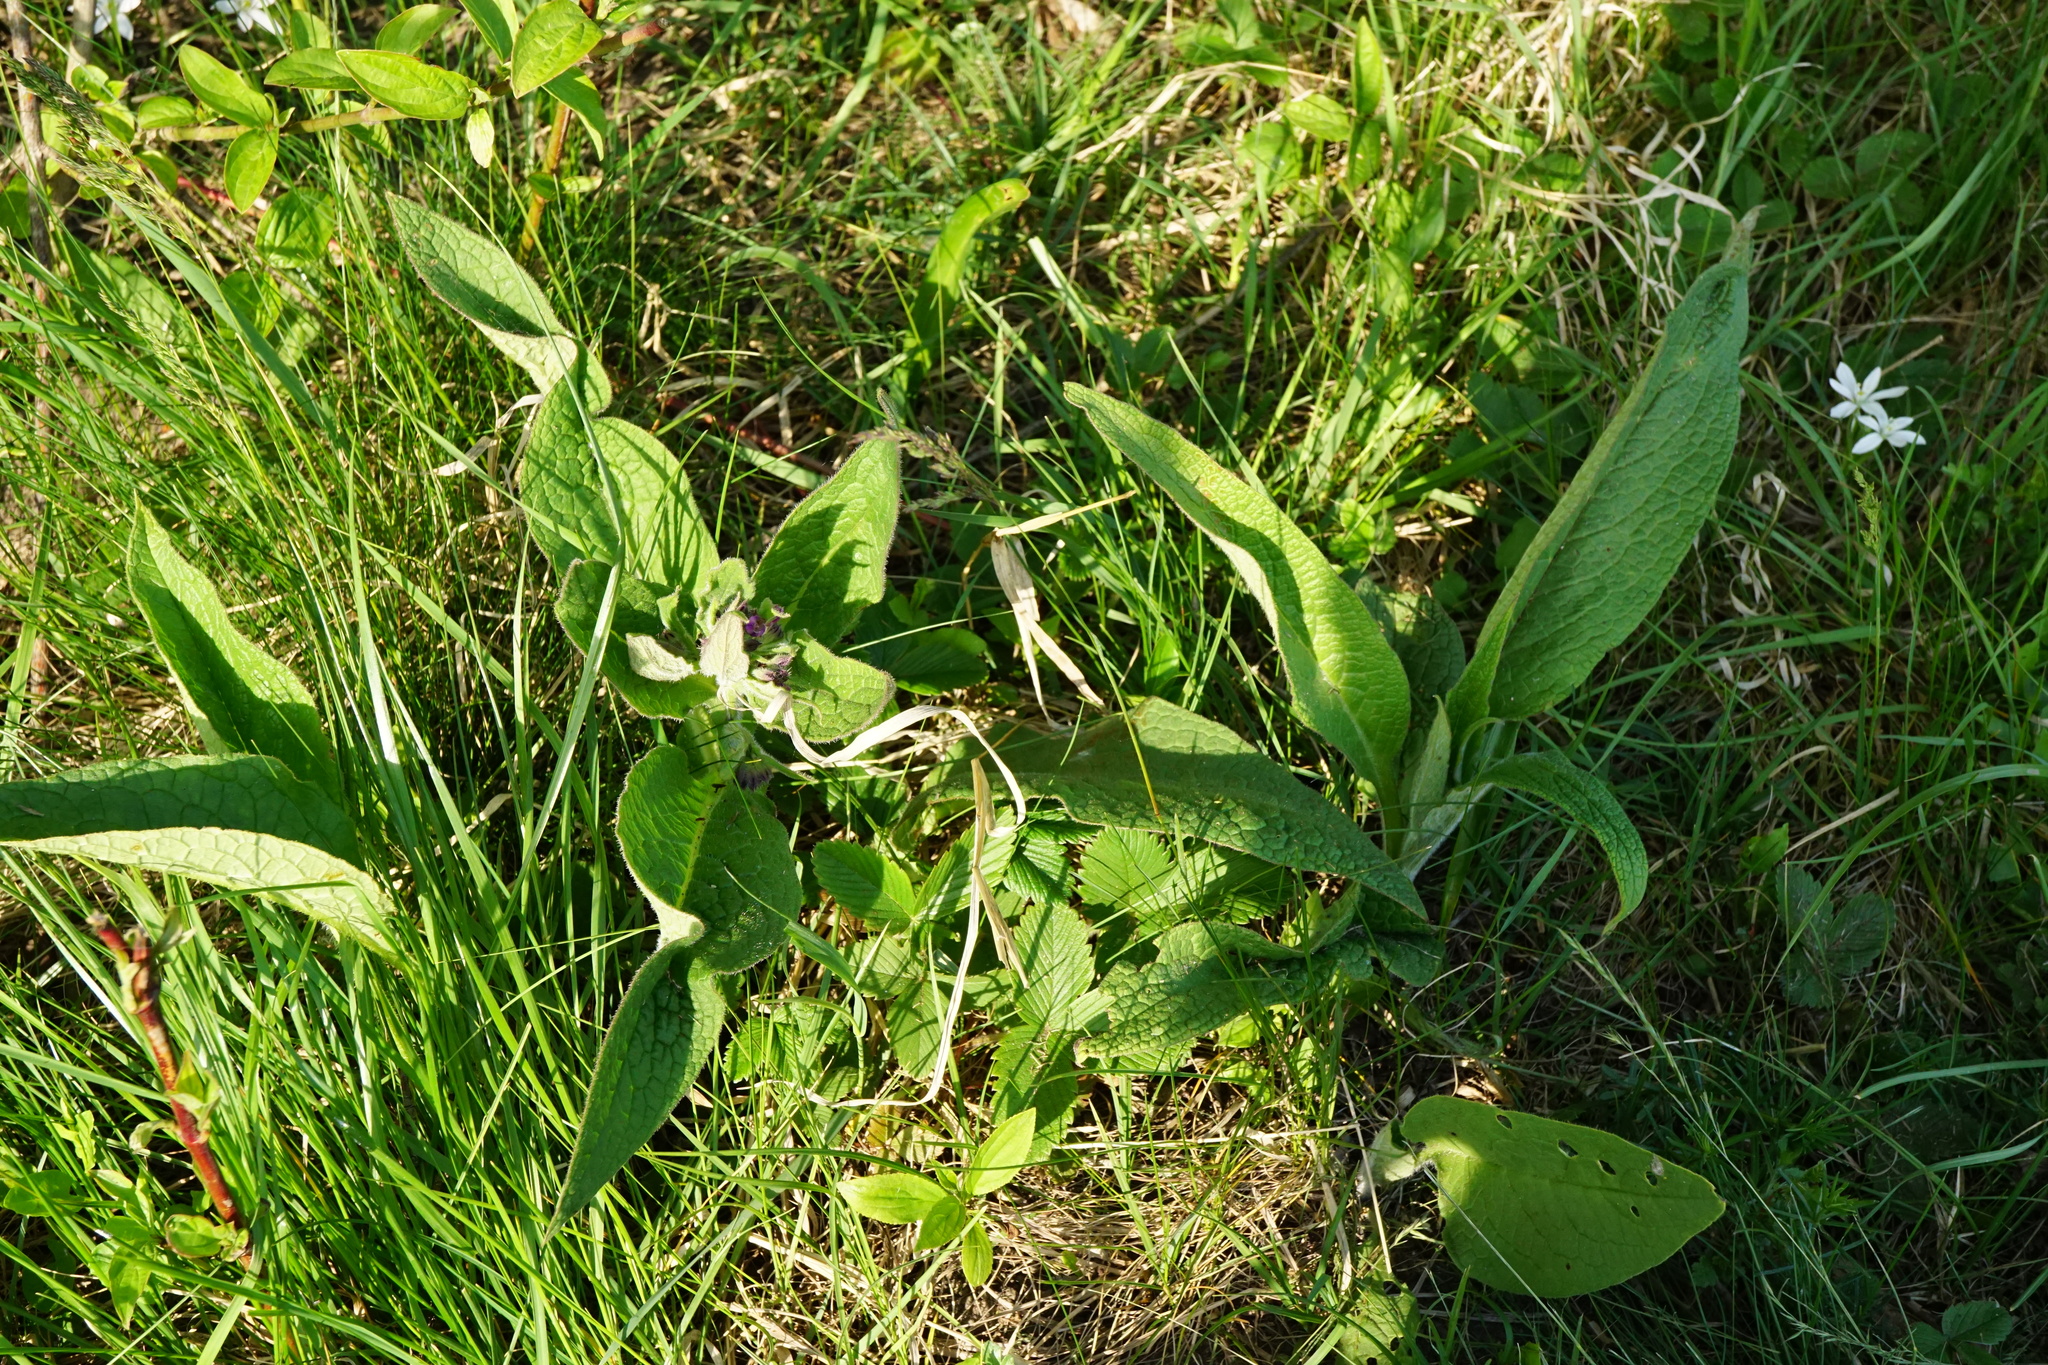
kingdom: Plantae
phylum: Tracheophyta
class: Magnoliopsida
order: Boraginales
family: Boraginaceae
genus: Symphytum
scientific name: Symphytum officinale
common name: Common comfrey
